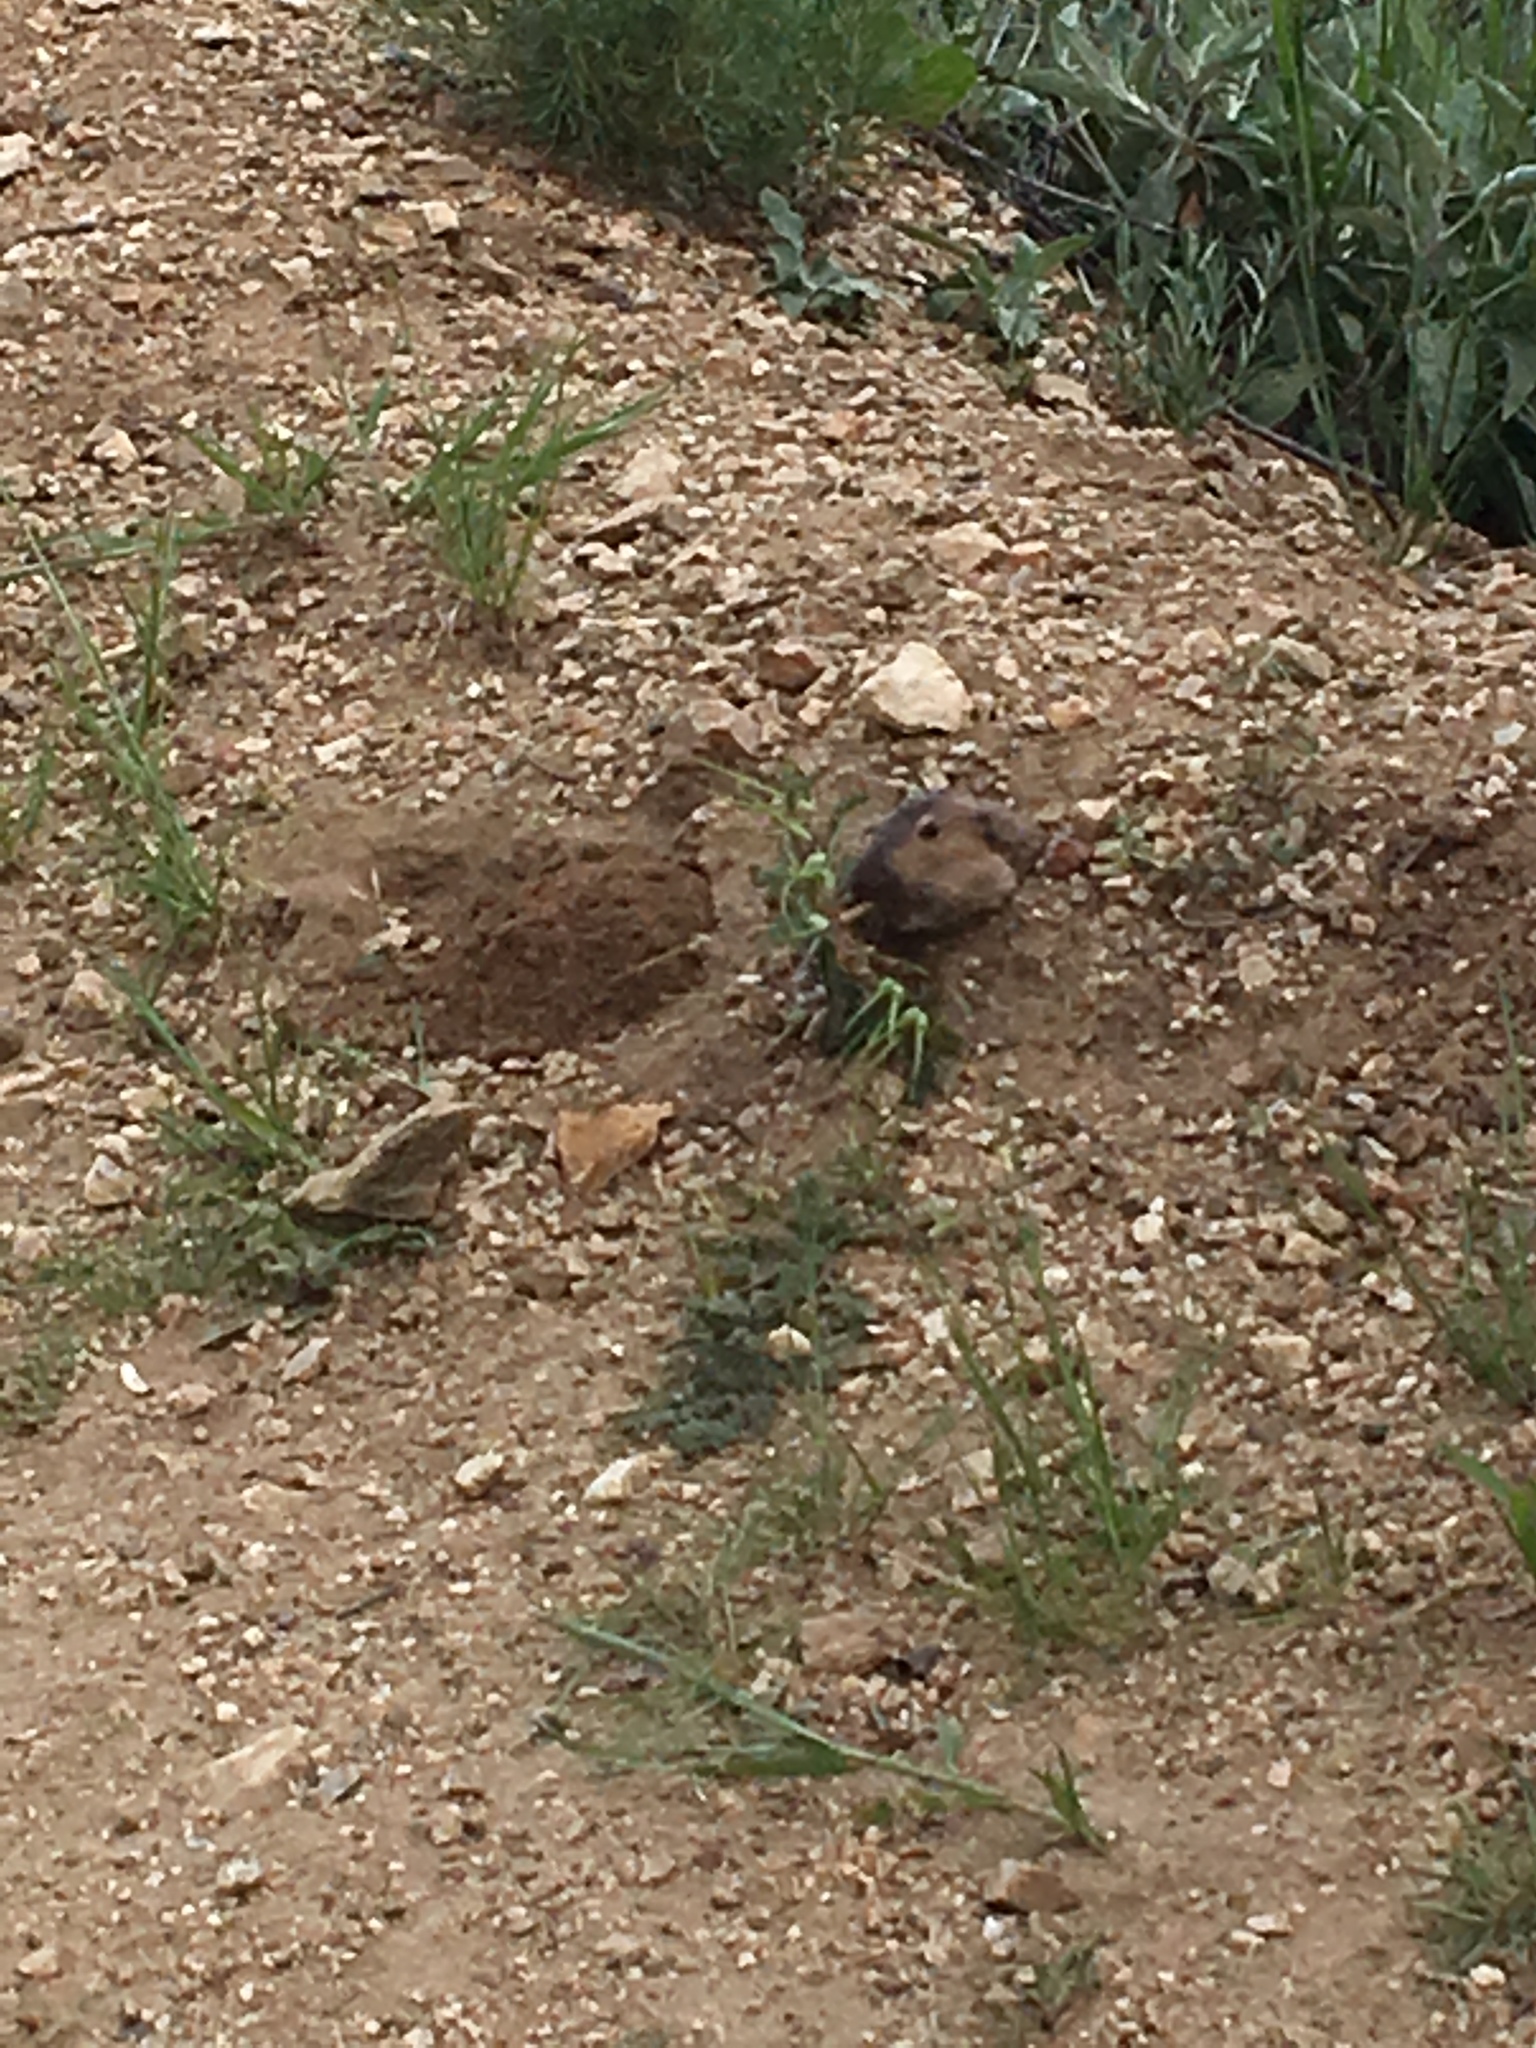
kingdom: Animalia
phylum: Chordata
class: Mammalia
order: Rodentia
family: Geomyidae
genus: Thomomys
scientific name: Thomomys bottae
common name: Botta's pocket gopher
